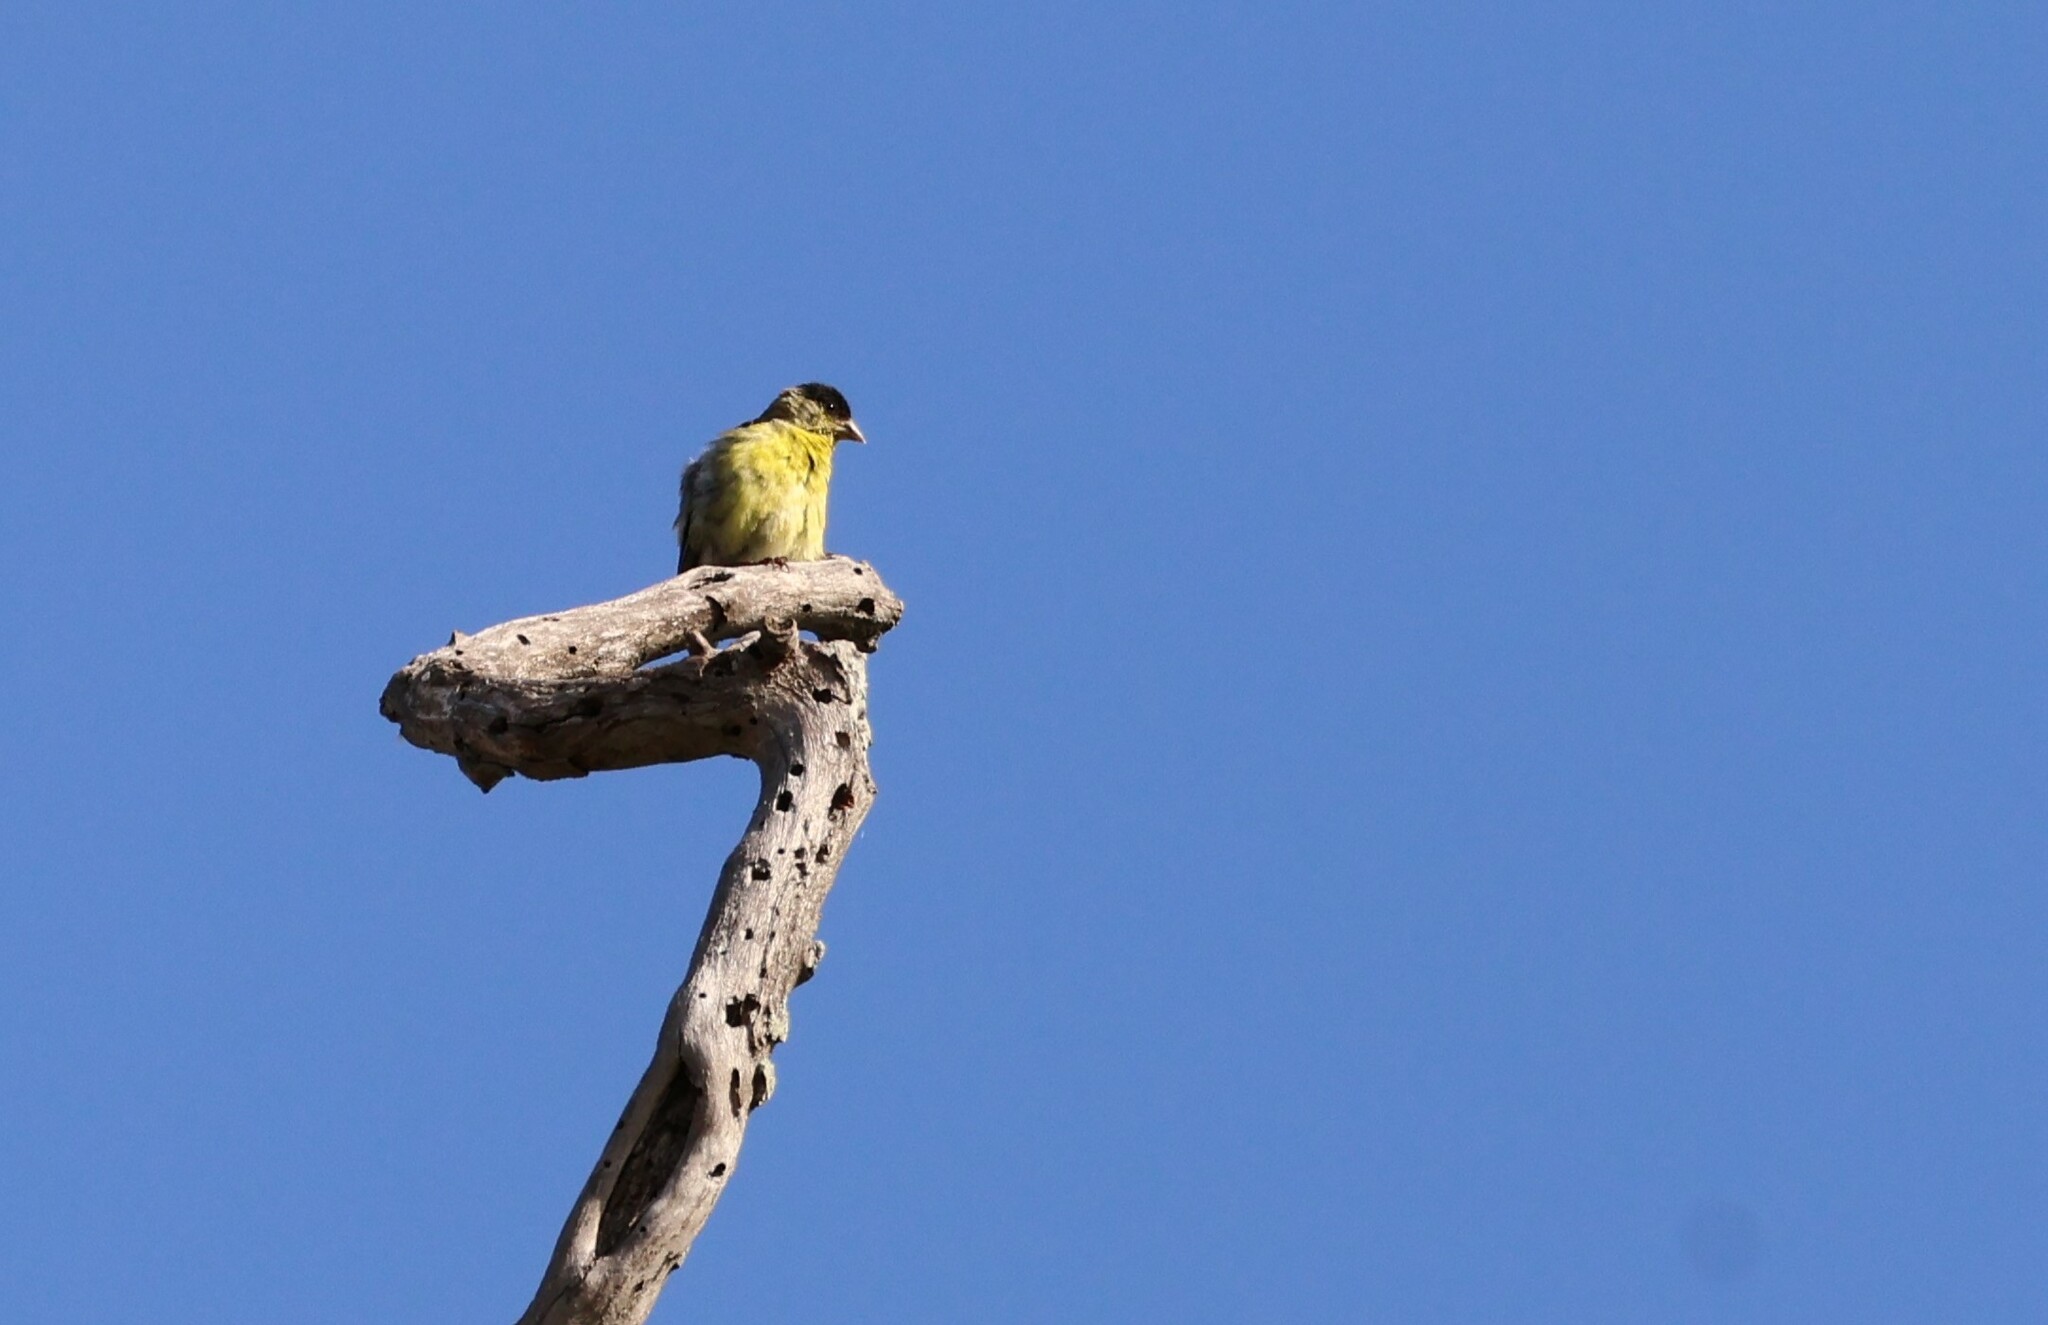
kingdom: Animalia
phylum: Chordata
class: Aves
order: Passeriformes
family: Fringillidae
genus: Spinus
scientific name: Spinus psaltria
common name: Lesser goldfinch
